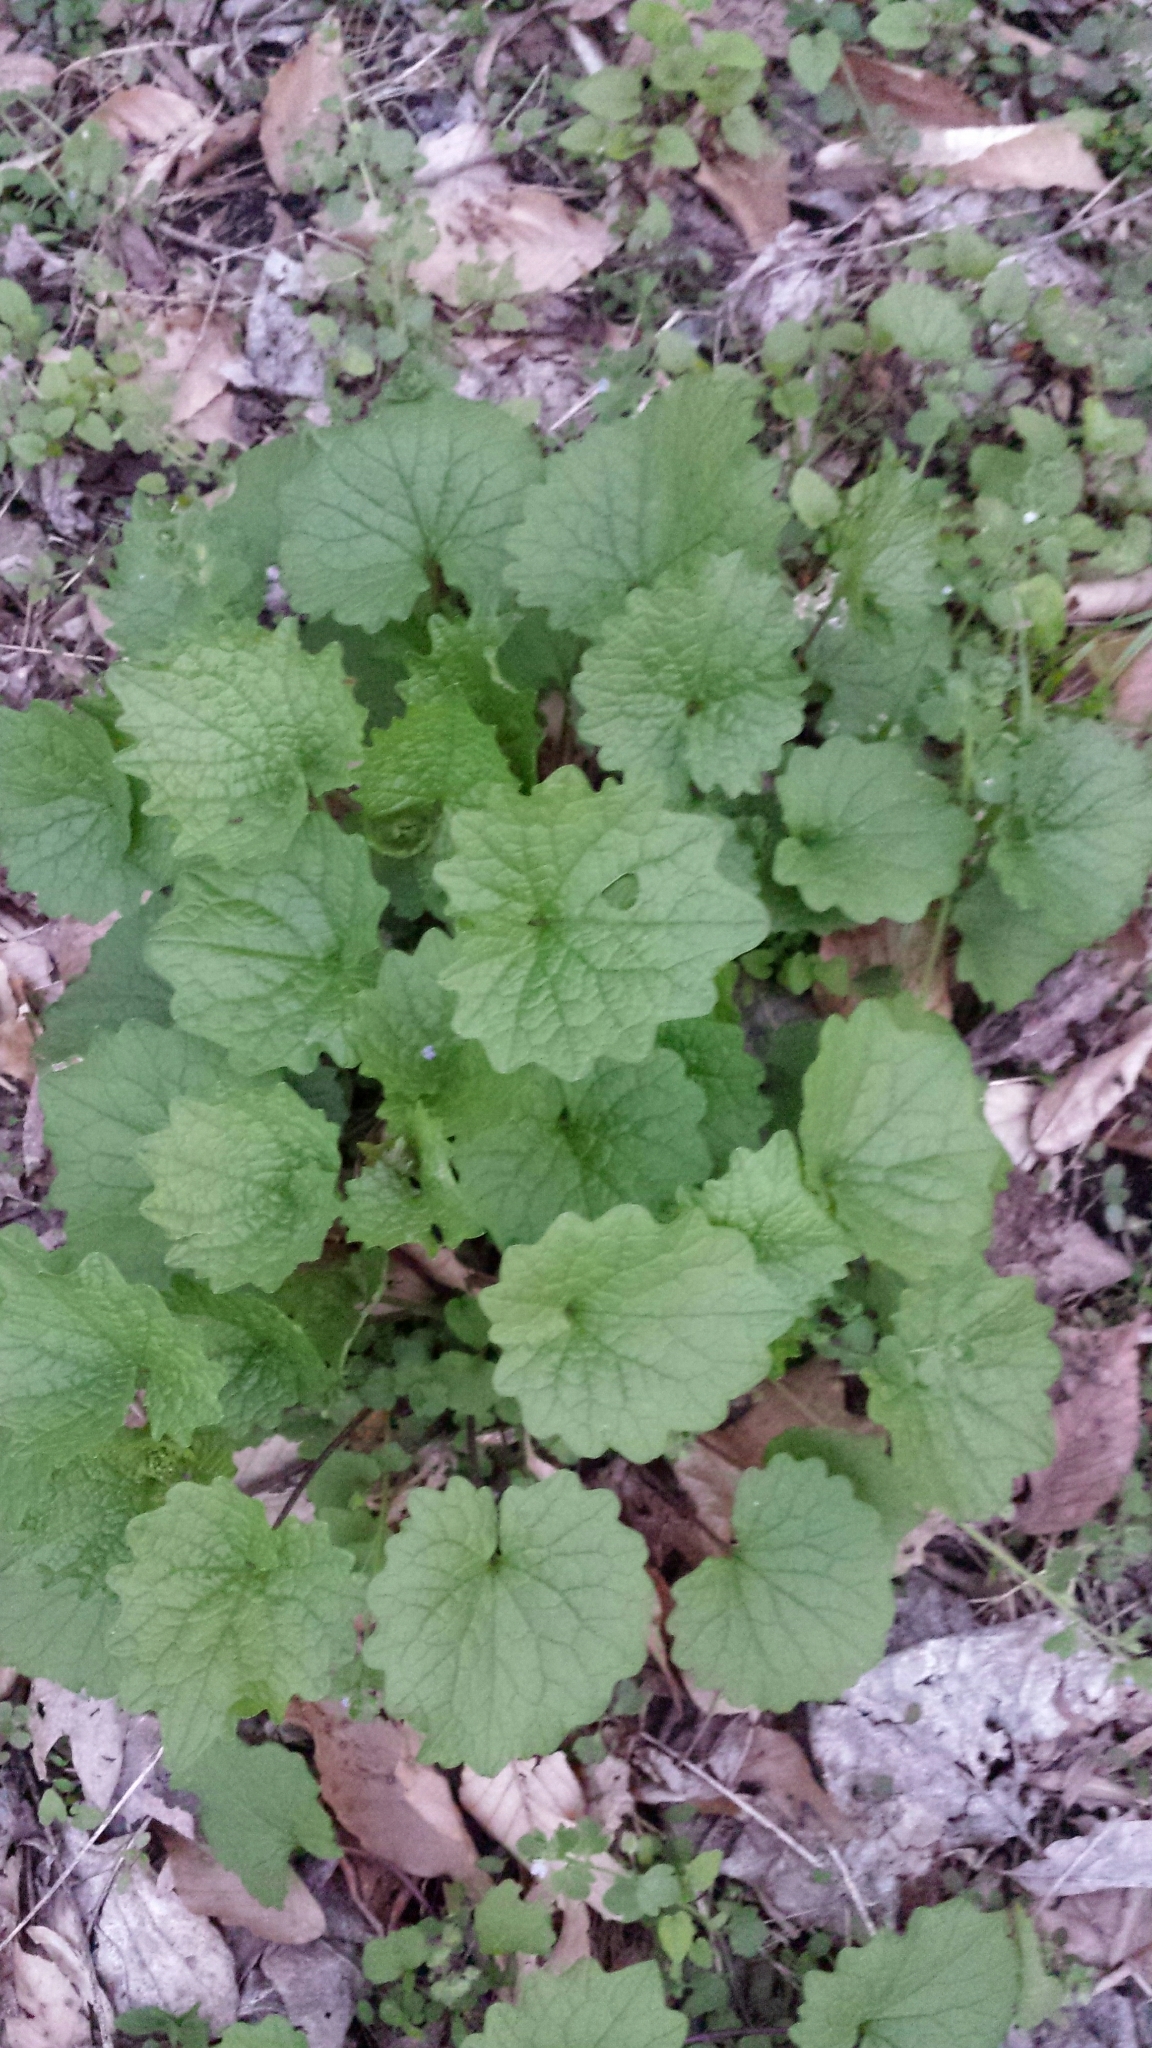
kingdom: Plantae
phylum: Tracheophyta
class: Magnoliopsida
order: Brassicales
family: Brassicaceae
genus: Alliaria
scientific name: Alliaria petiolata
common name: Garlic mustard
